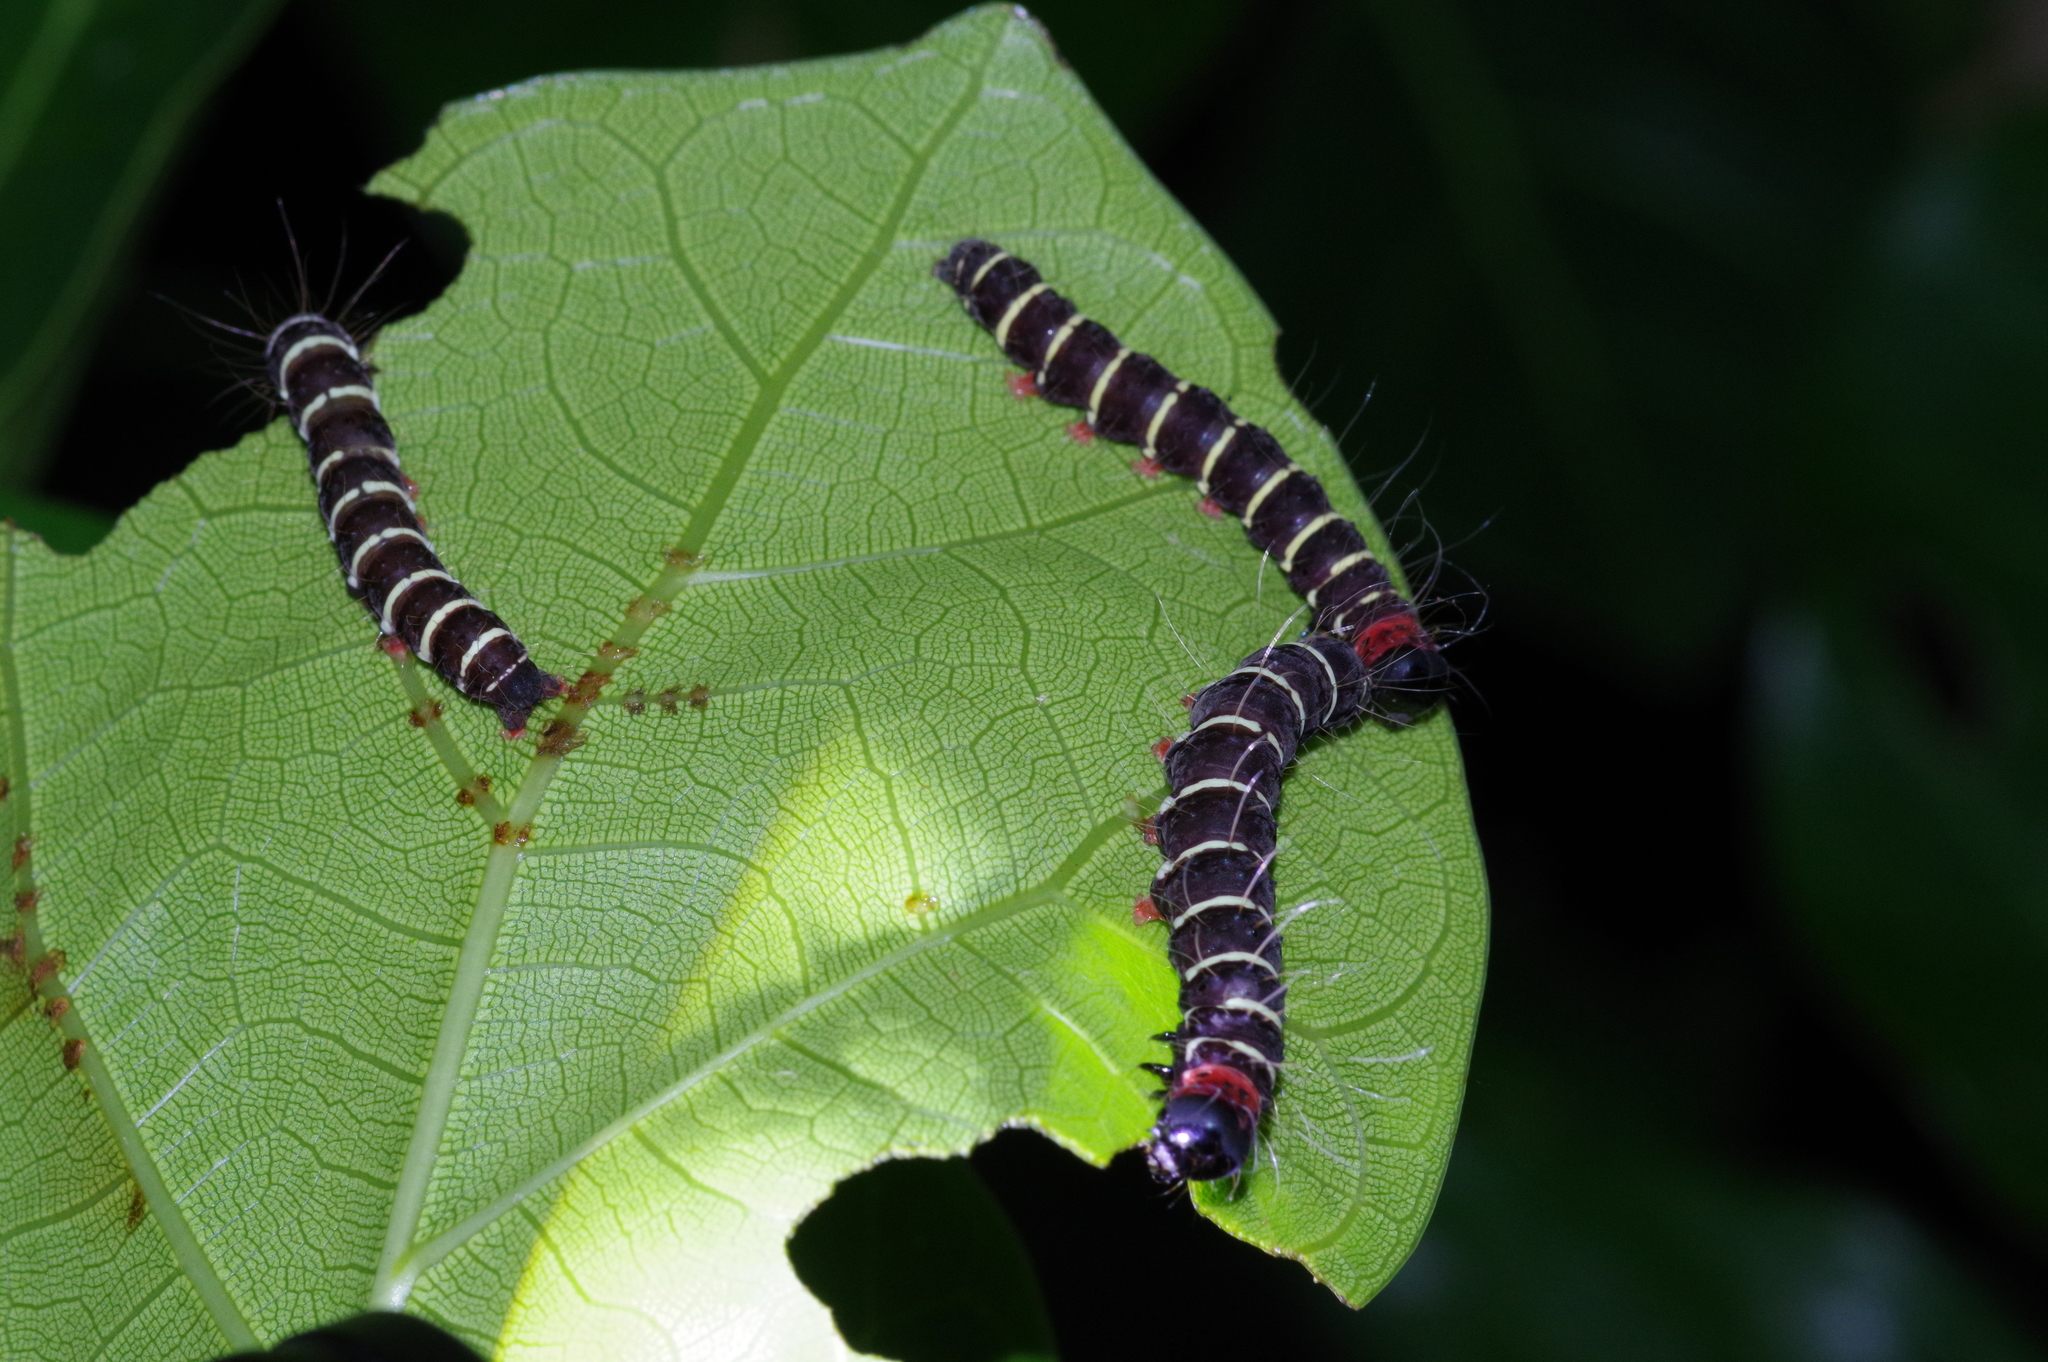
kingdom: Animalia
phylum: Arthropoda
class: Insecta
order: Lepidoptera
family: Erebidae
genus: Asota
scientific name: Asota plana
